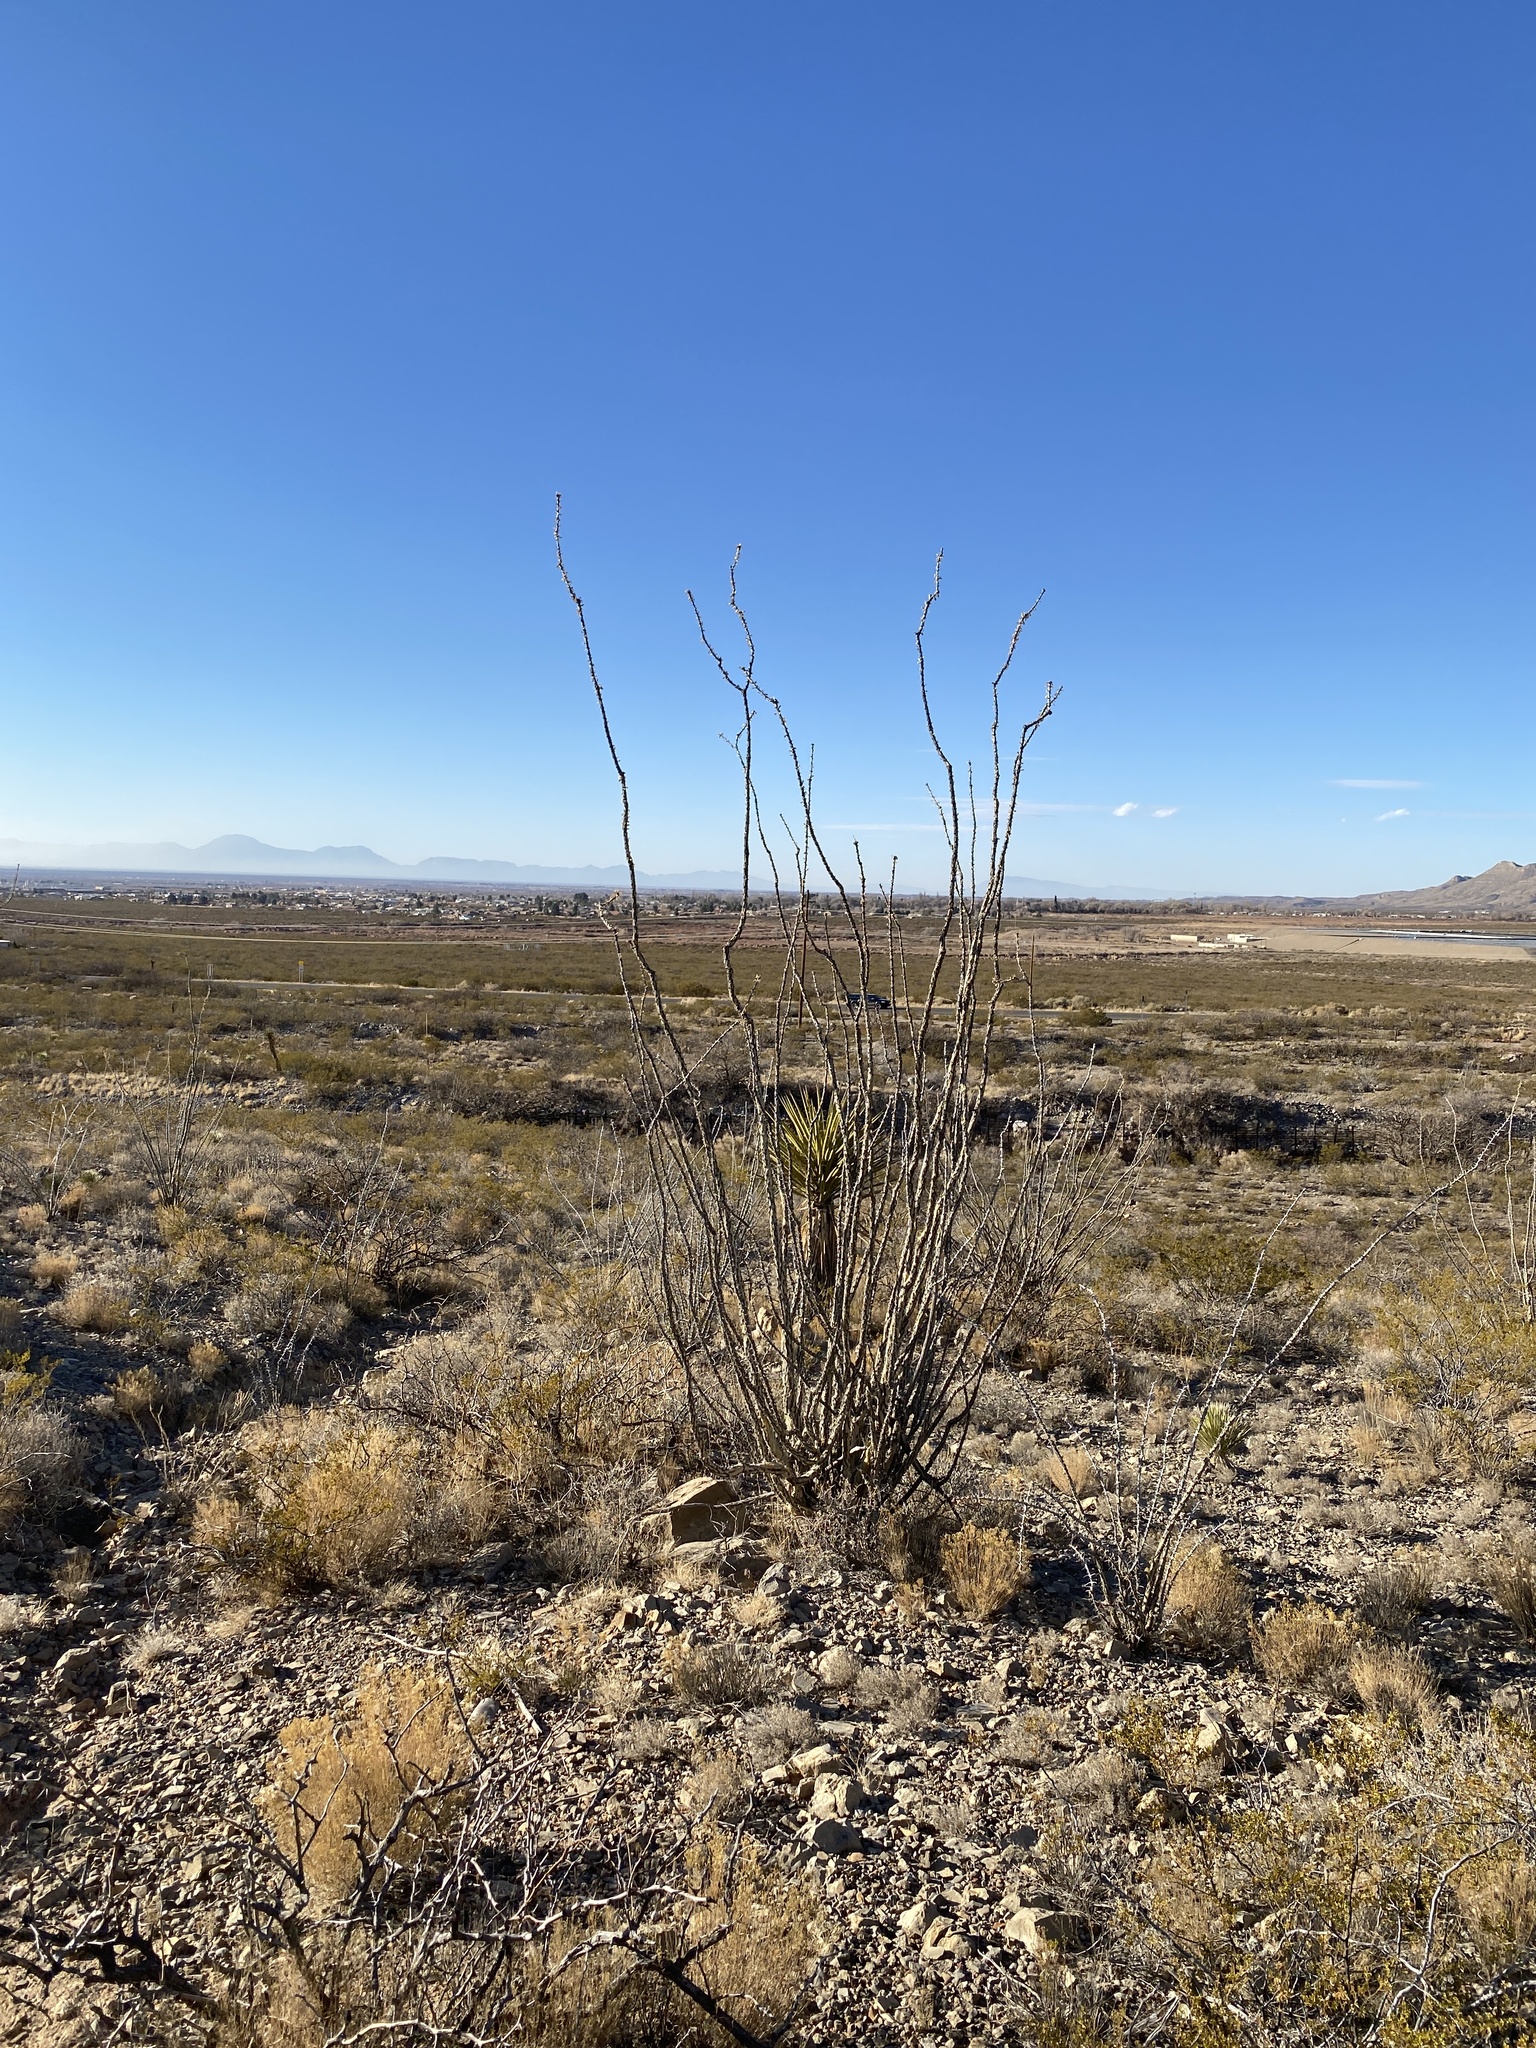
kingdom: Plantae
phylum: Tracheophyta
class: Magnoliopsida
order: Ericales
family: Fouquieriaceae
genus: Fouquieria
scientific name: Fouquieria splendens
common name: Vine-cactus
